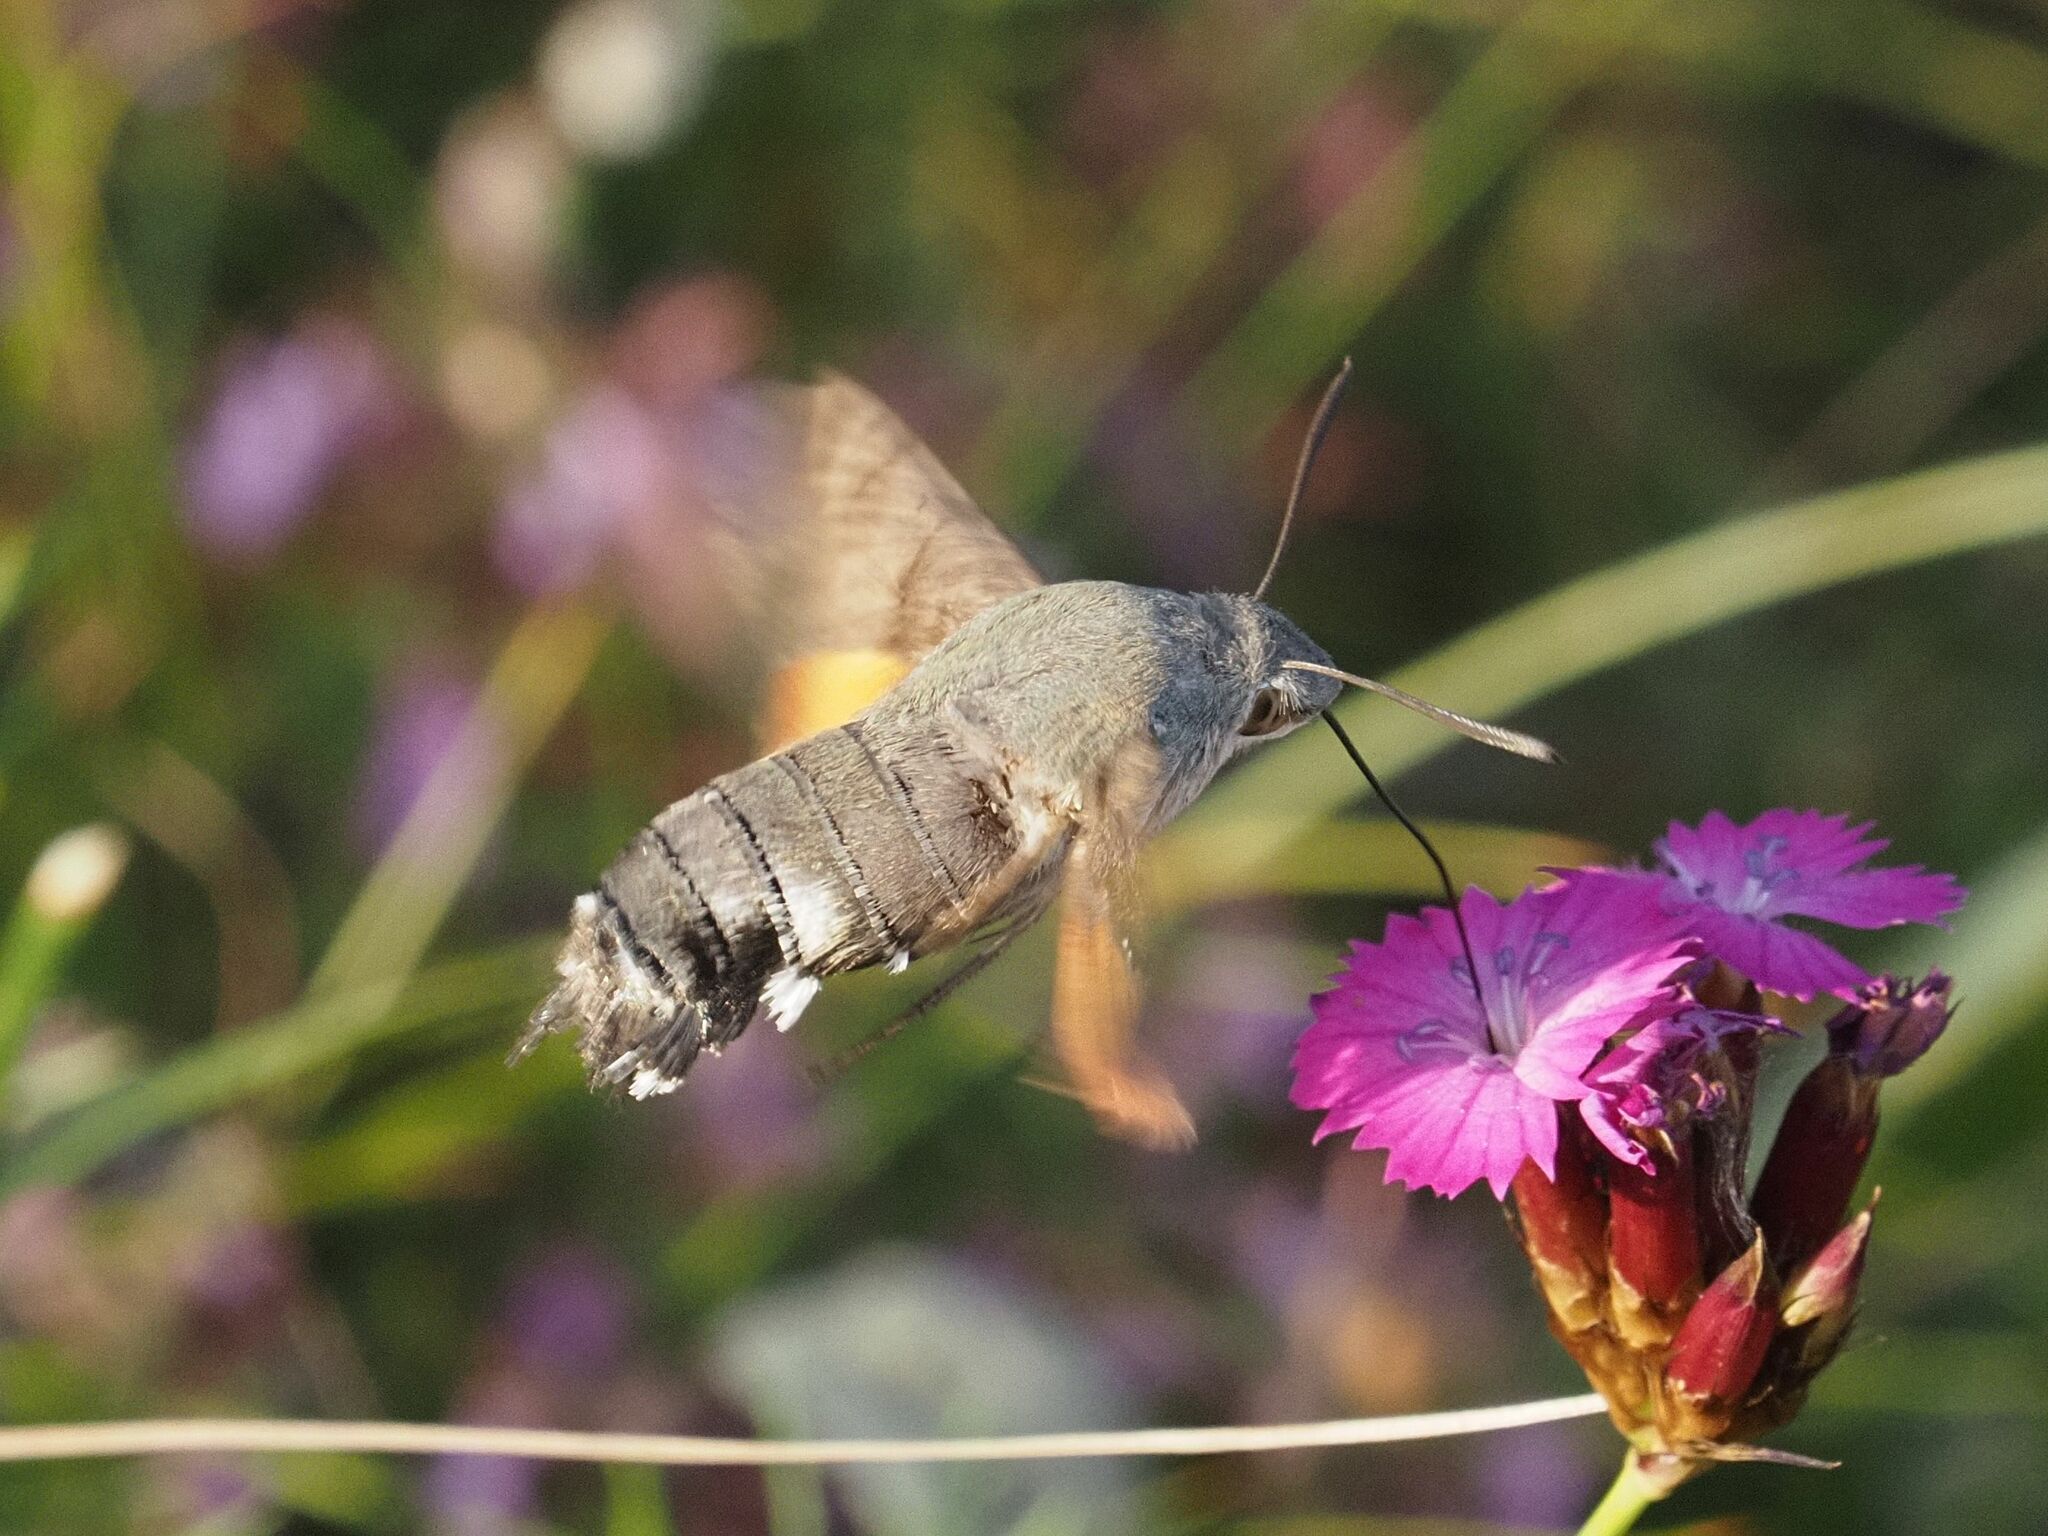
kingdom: Animalia
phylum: Arthropoda
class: Insecta
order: Lepidoptera
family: Sphingidae
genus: Macroglossum
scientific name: Macroglossum stellatarum
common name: Humming-bird hawk-moth
